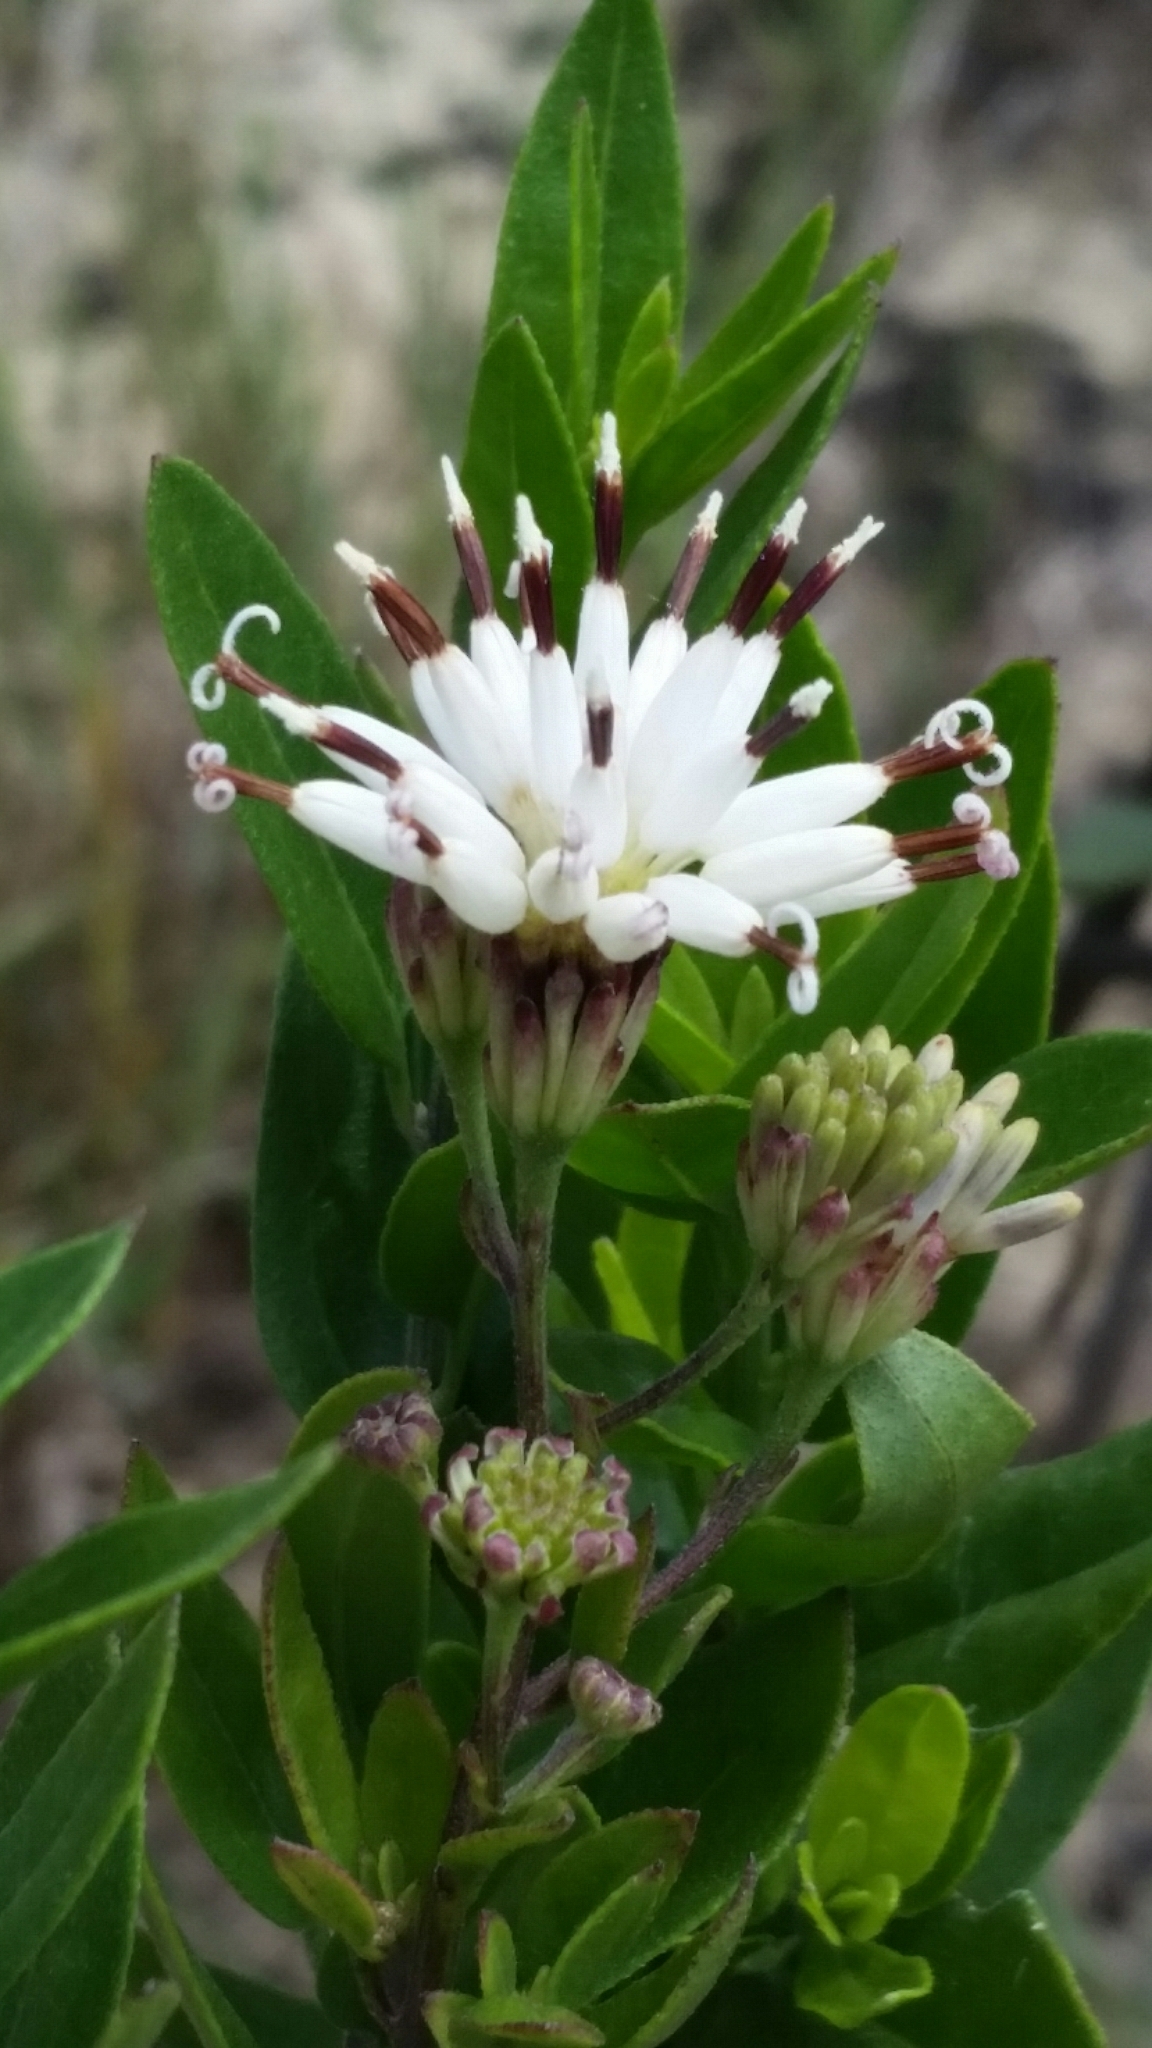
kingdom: Plantae
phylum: Tracheophyta
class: Magnoliopsida
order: Asterales
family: Asteraceae
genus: Palafoxia
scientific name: Palafoxia feayi
